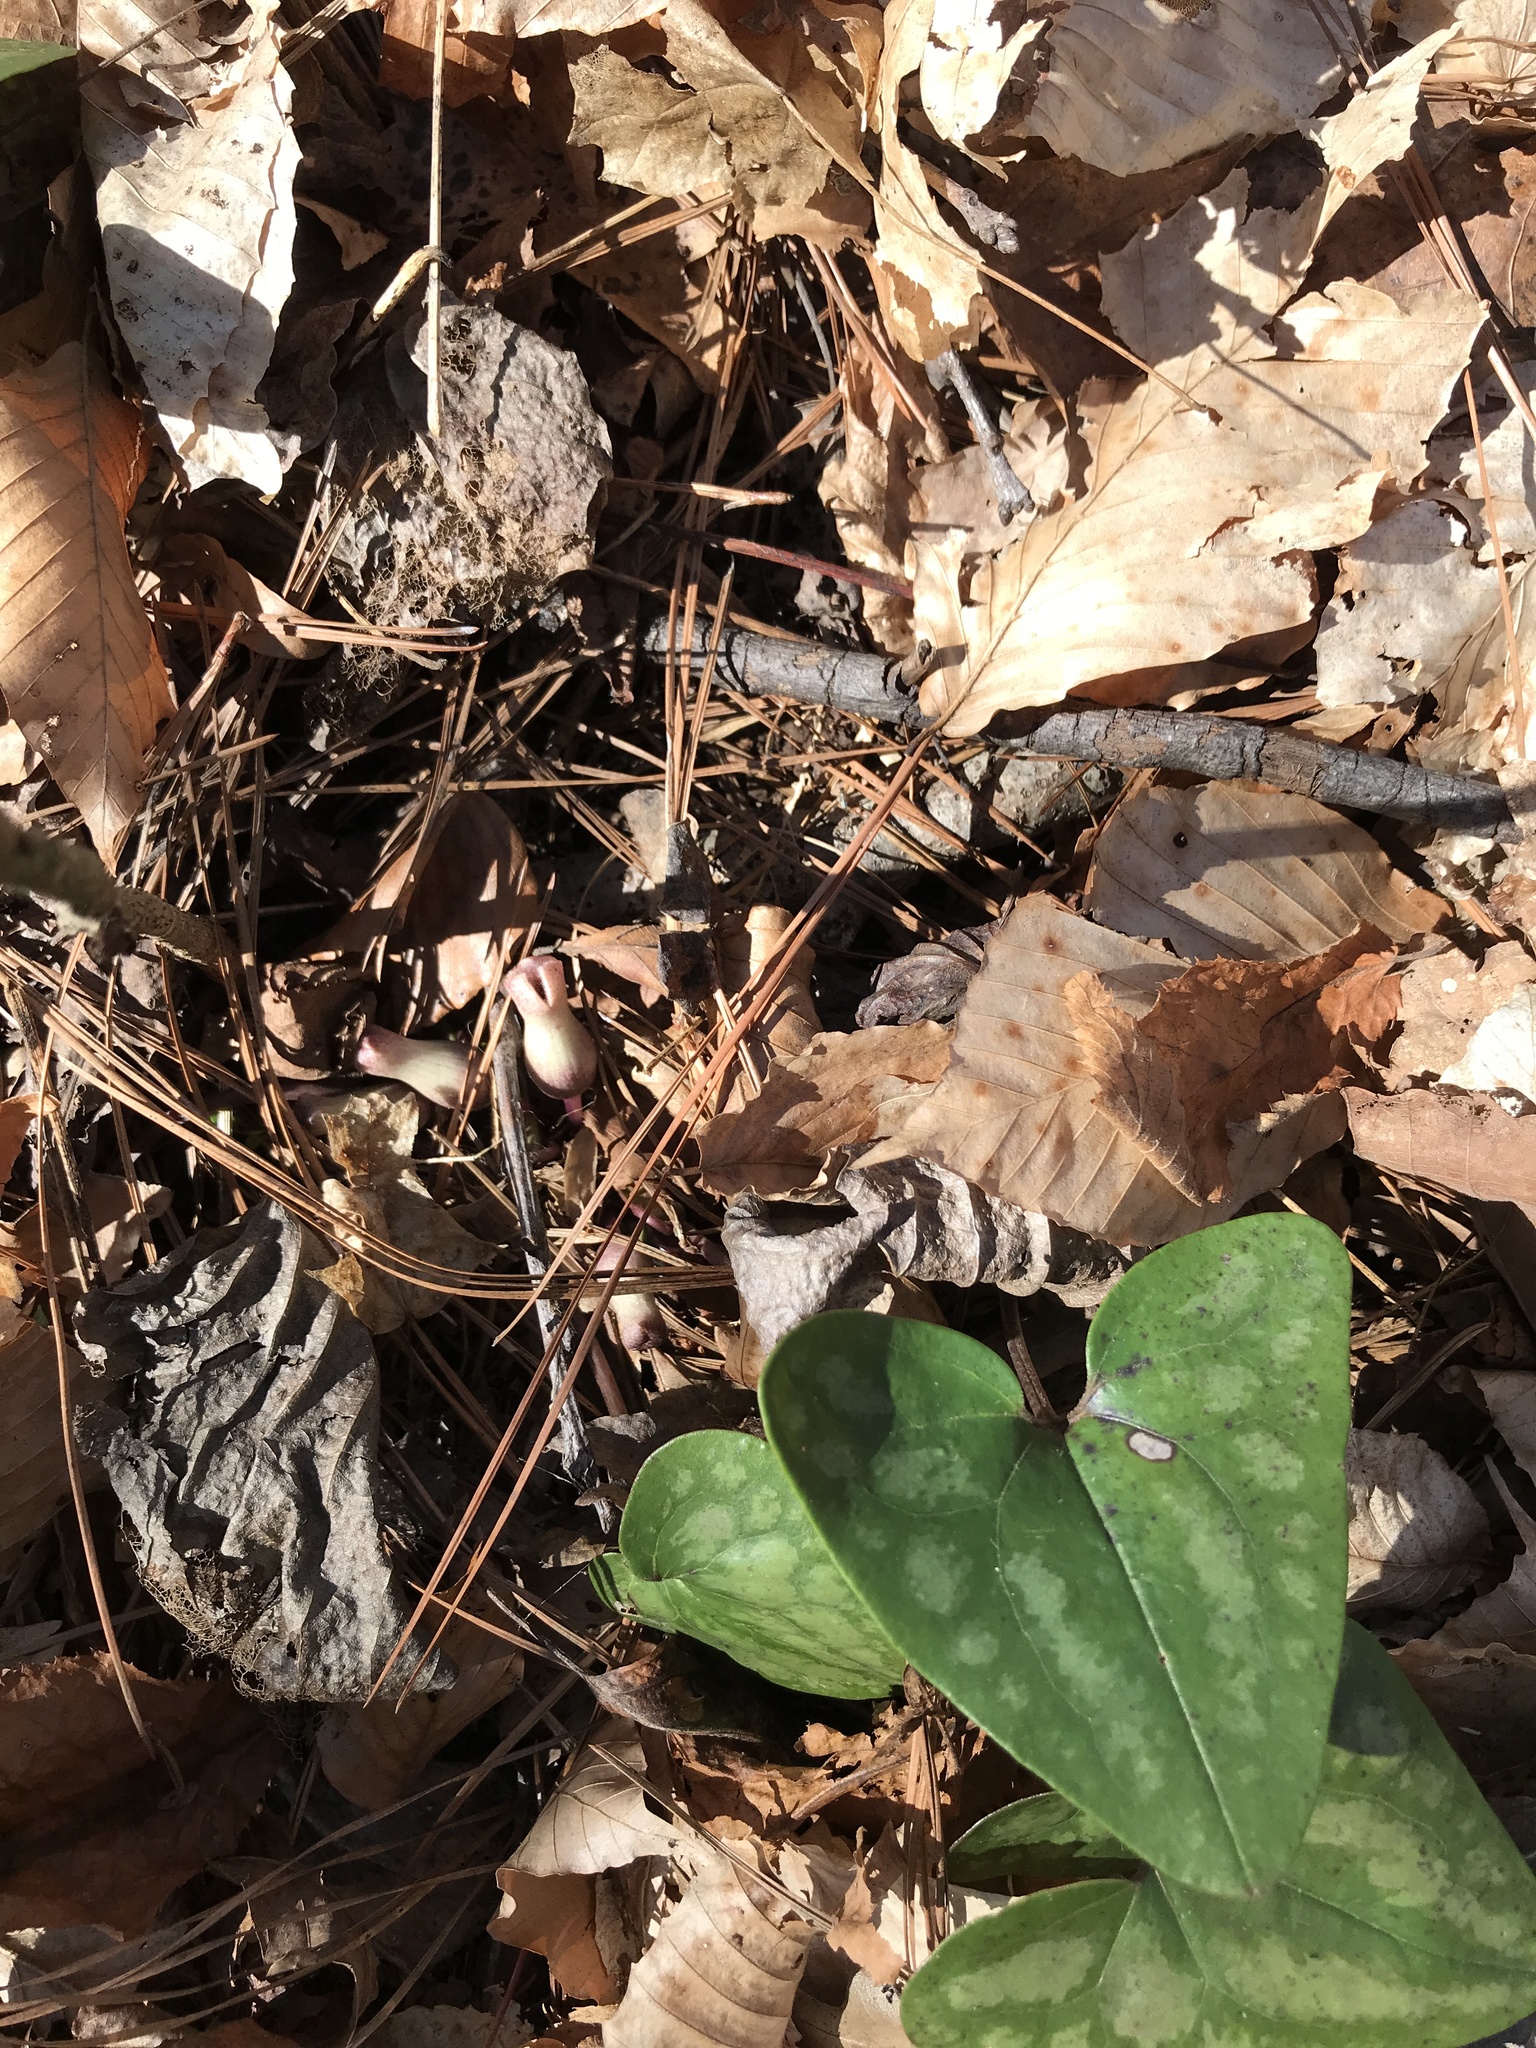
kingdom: Plantae
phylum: Tracheophyta
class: Magnoliopsida
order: Piperales
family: Aristolochiaceae
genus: Hexastylis
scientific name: Hexastylis arifolia
